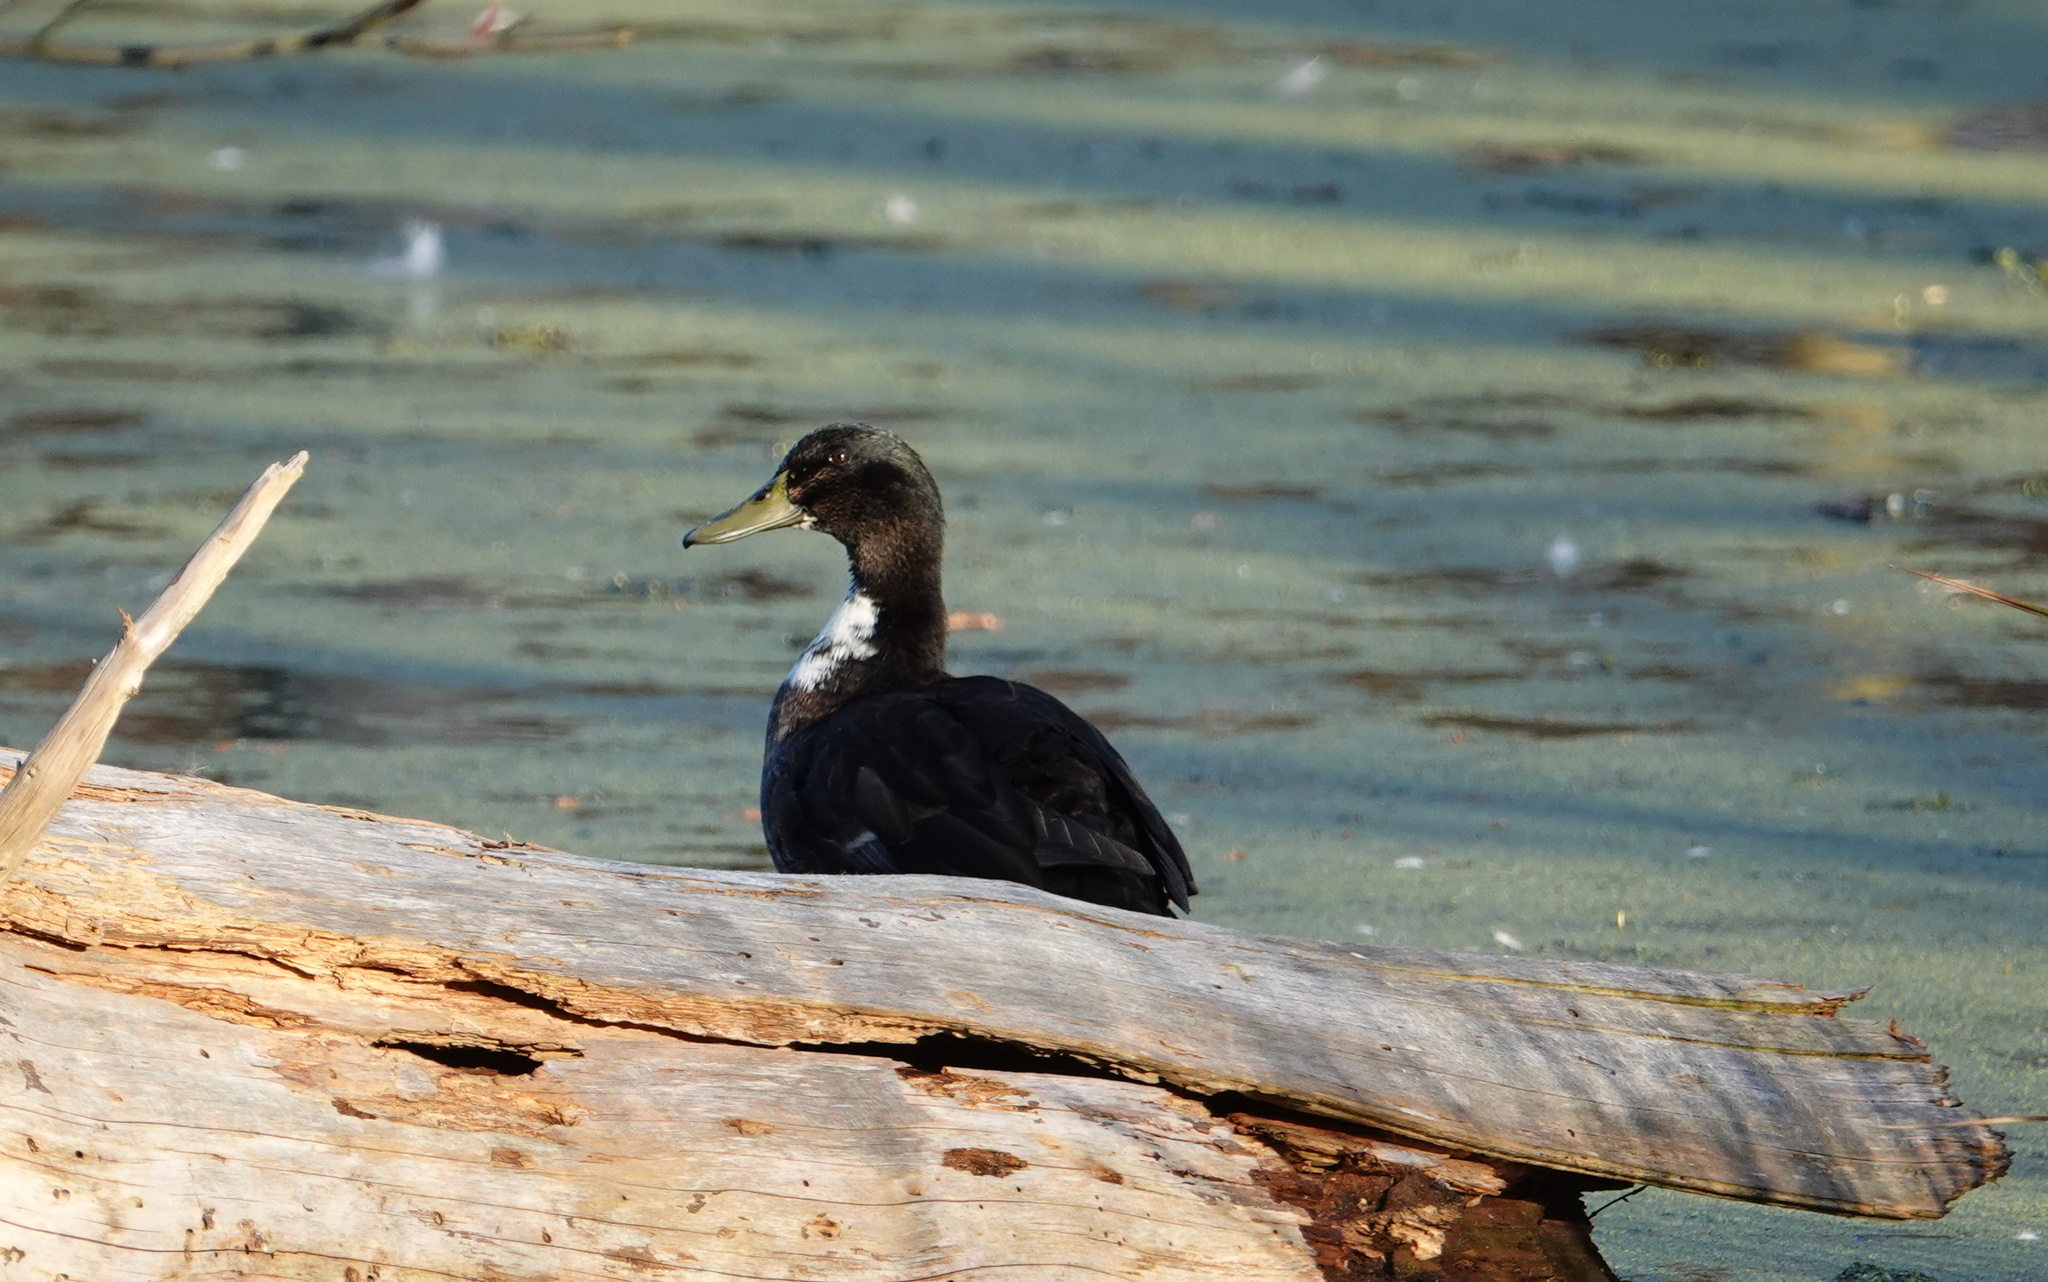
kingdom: Animalia
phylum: Chordata
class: Aves
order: Anseriformes
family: Anatidae
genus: Anas
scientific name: Anas platyrhynchos
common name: Mallard
